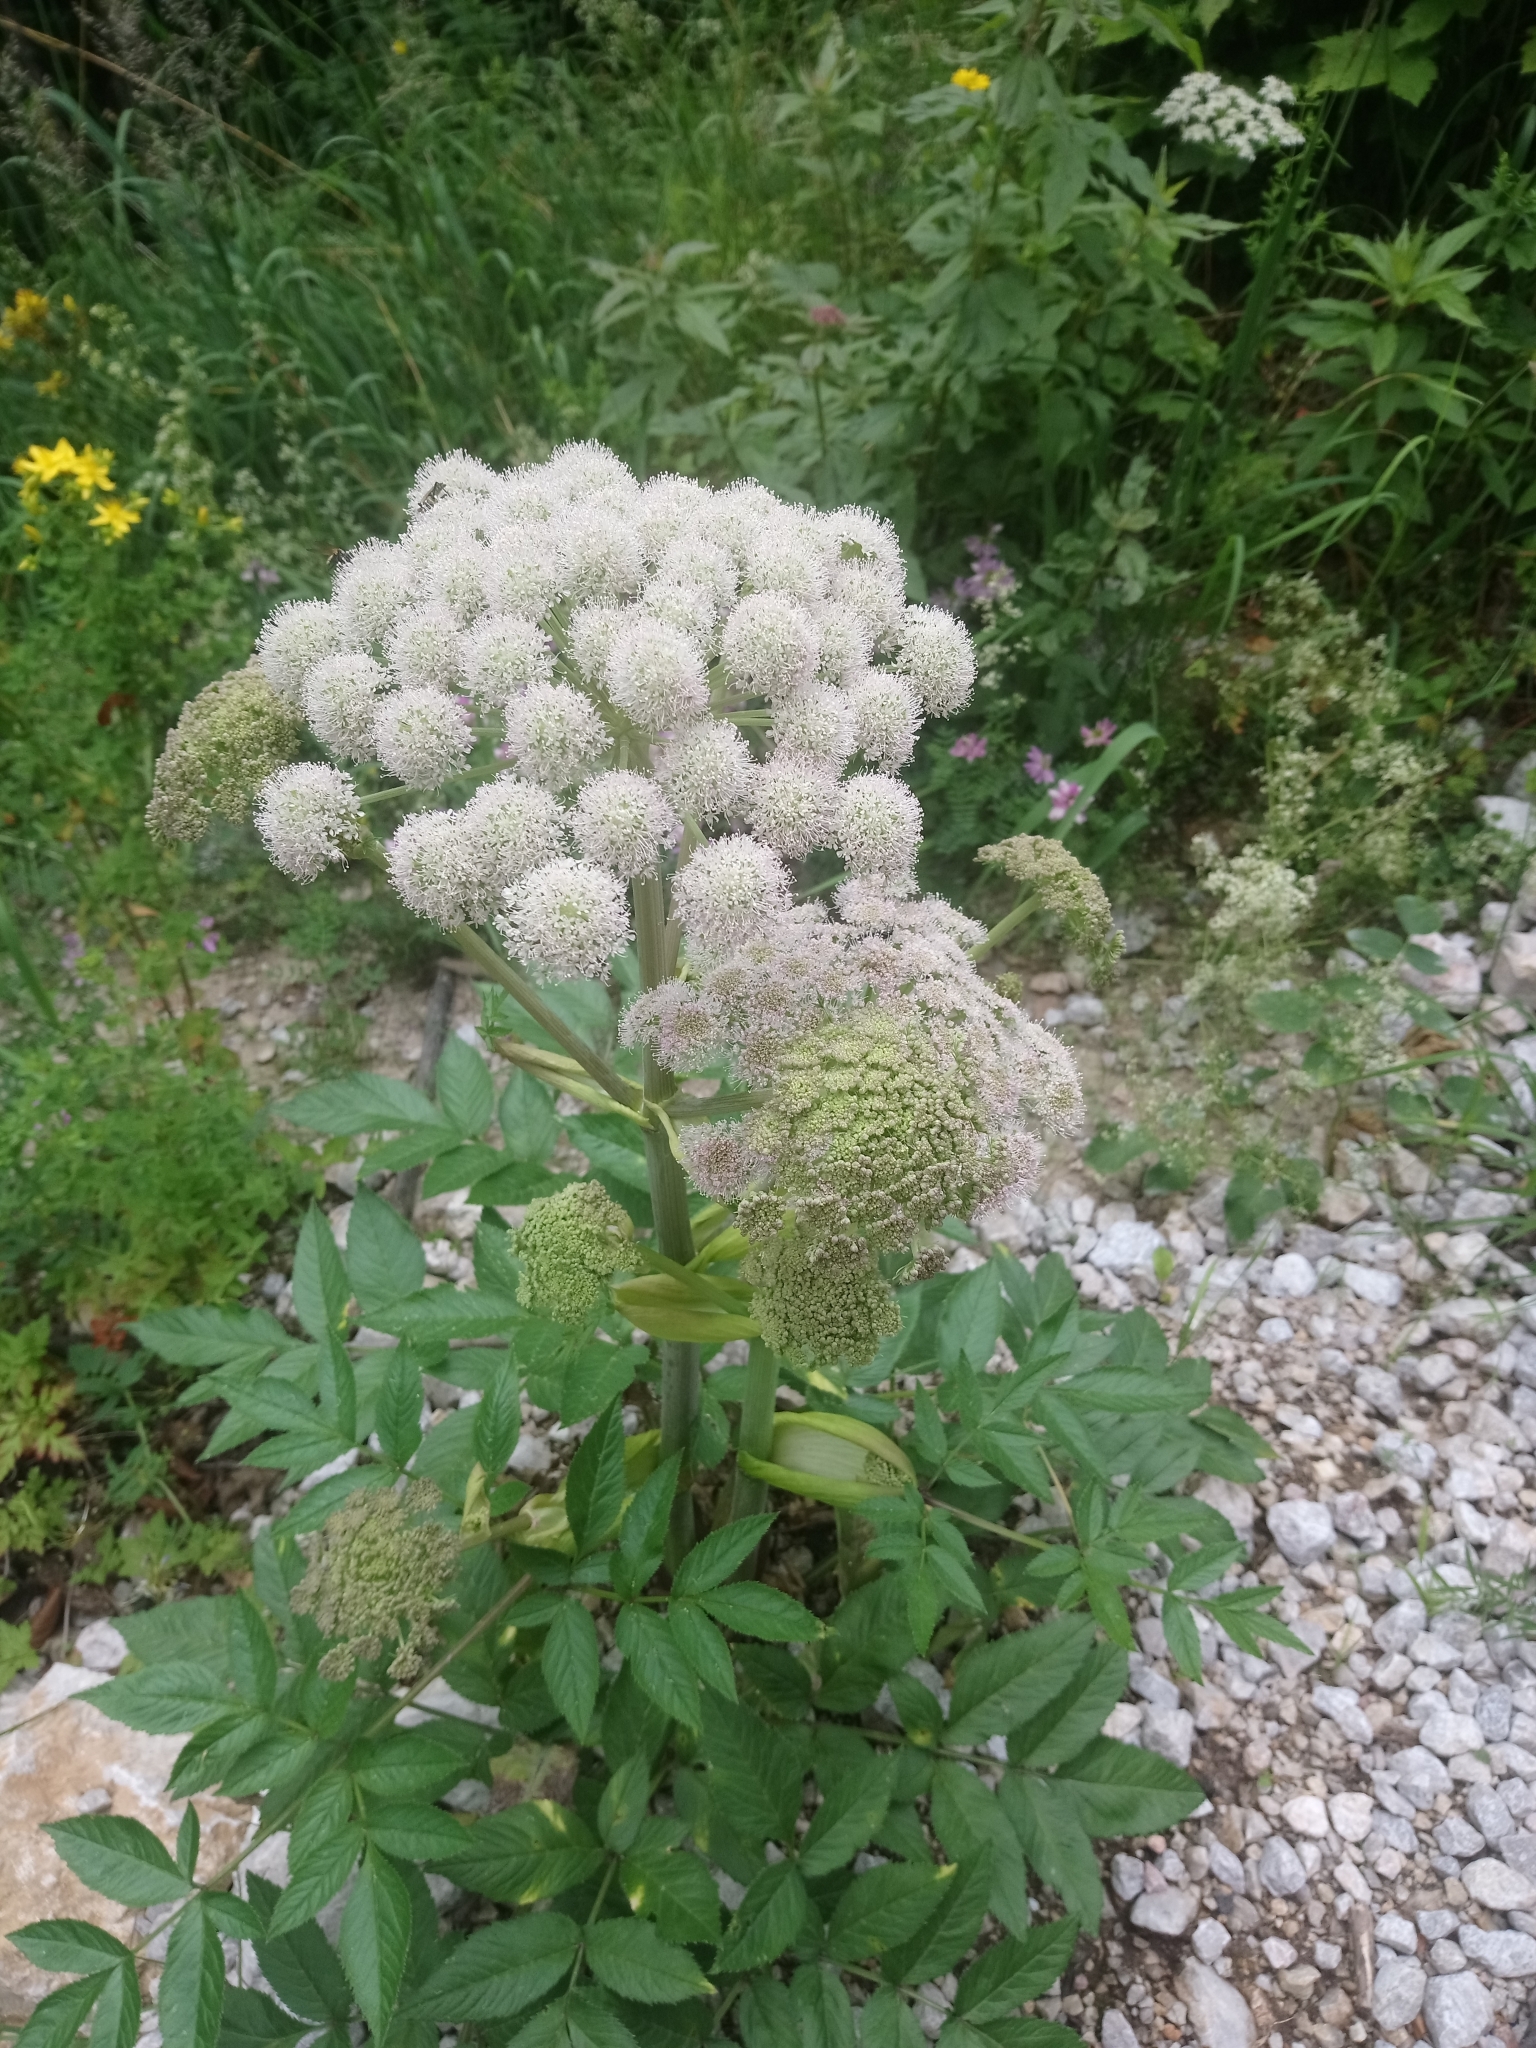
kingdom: Plantae
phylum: Tracheophyta
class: Magnoliopsida
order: Apiales
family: Apiaceae
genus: Angelica
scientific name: Angelica sylvestris
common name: Wild angelica
